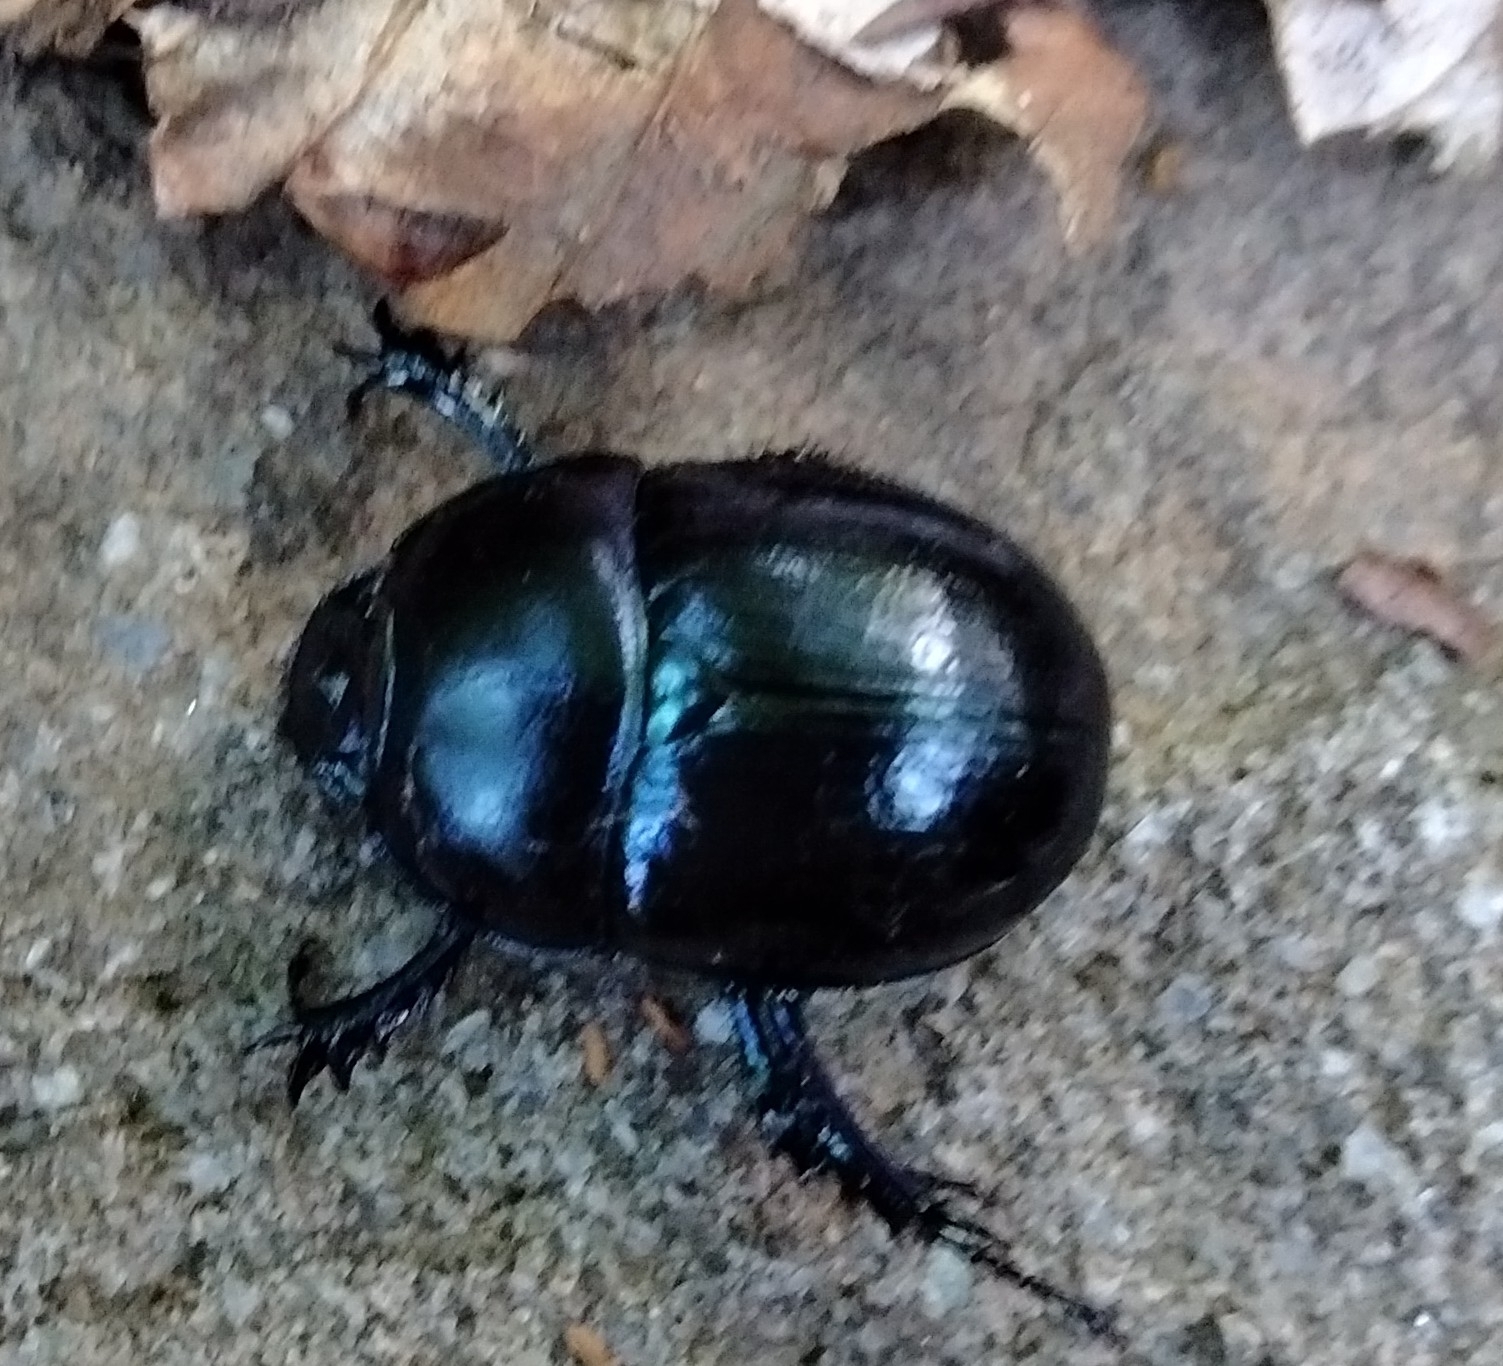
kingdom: Animalia
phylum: Arthropoda
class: Insecta
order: Coleoptera
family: Geotrupidae
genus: Anoplotrupes
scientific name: Anoplotrupes stercorosus
